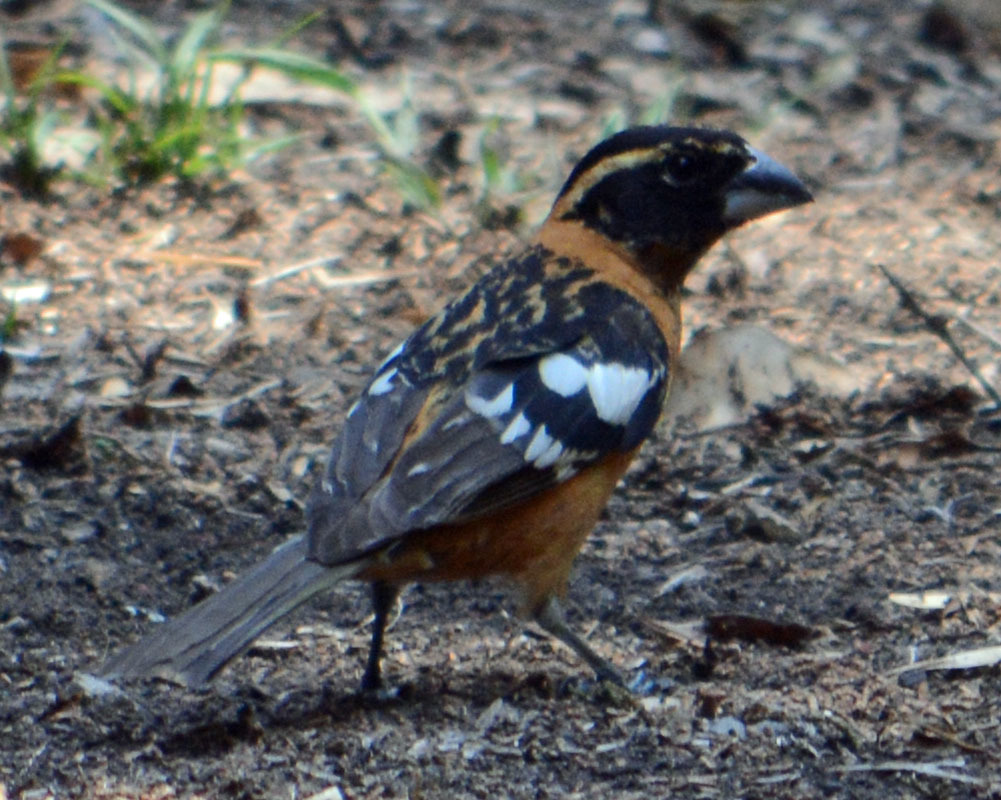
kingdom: Animalia
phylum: Chordata
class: Aves
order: Passeriformes
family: Cardinalidae
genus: Pheucticus
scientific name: Pheucticus melanocephalus
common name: Black-headed grosbeak
